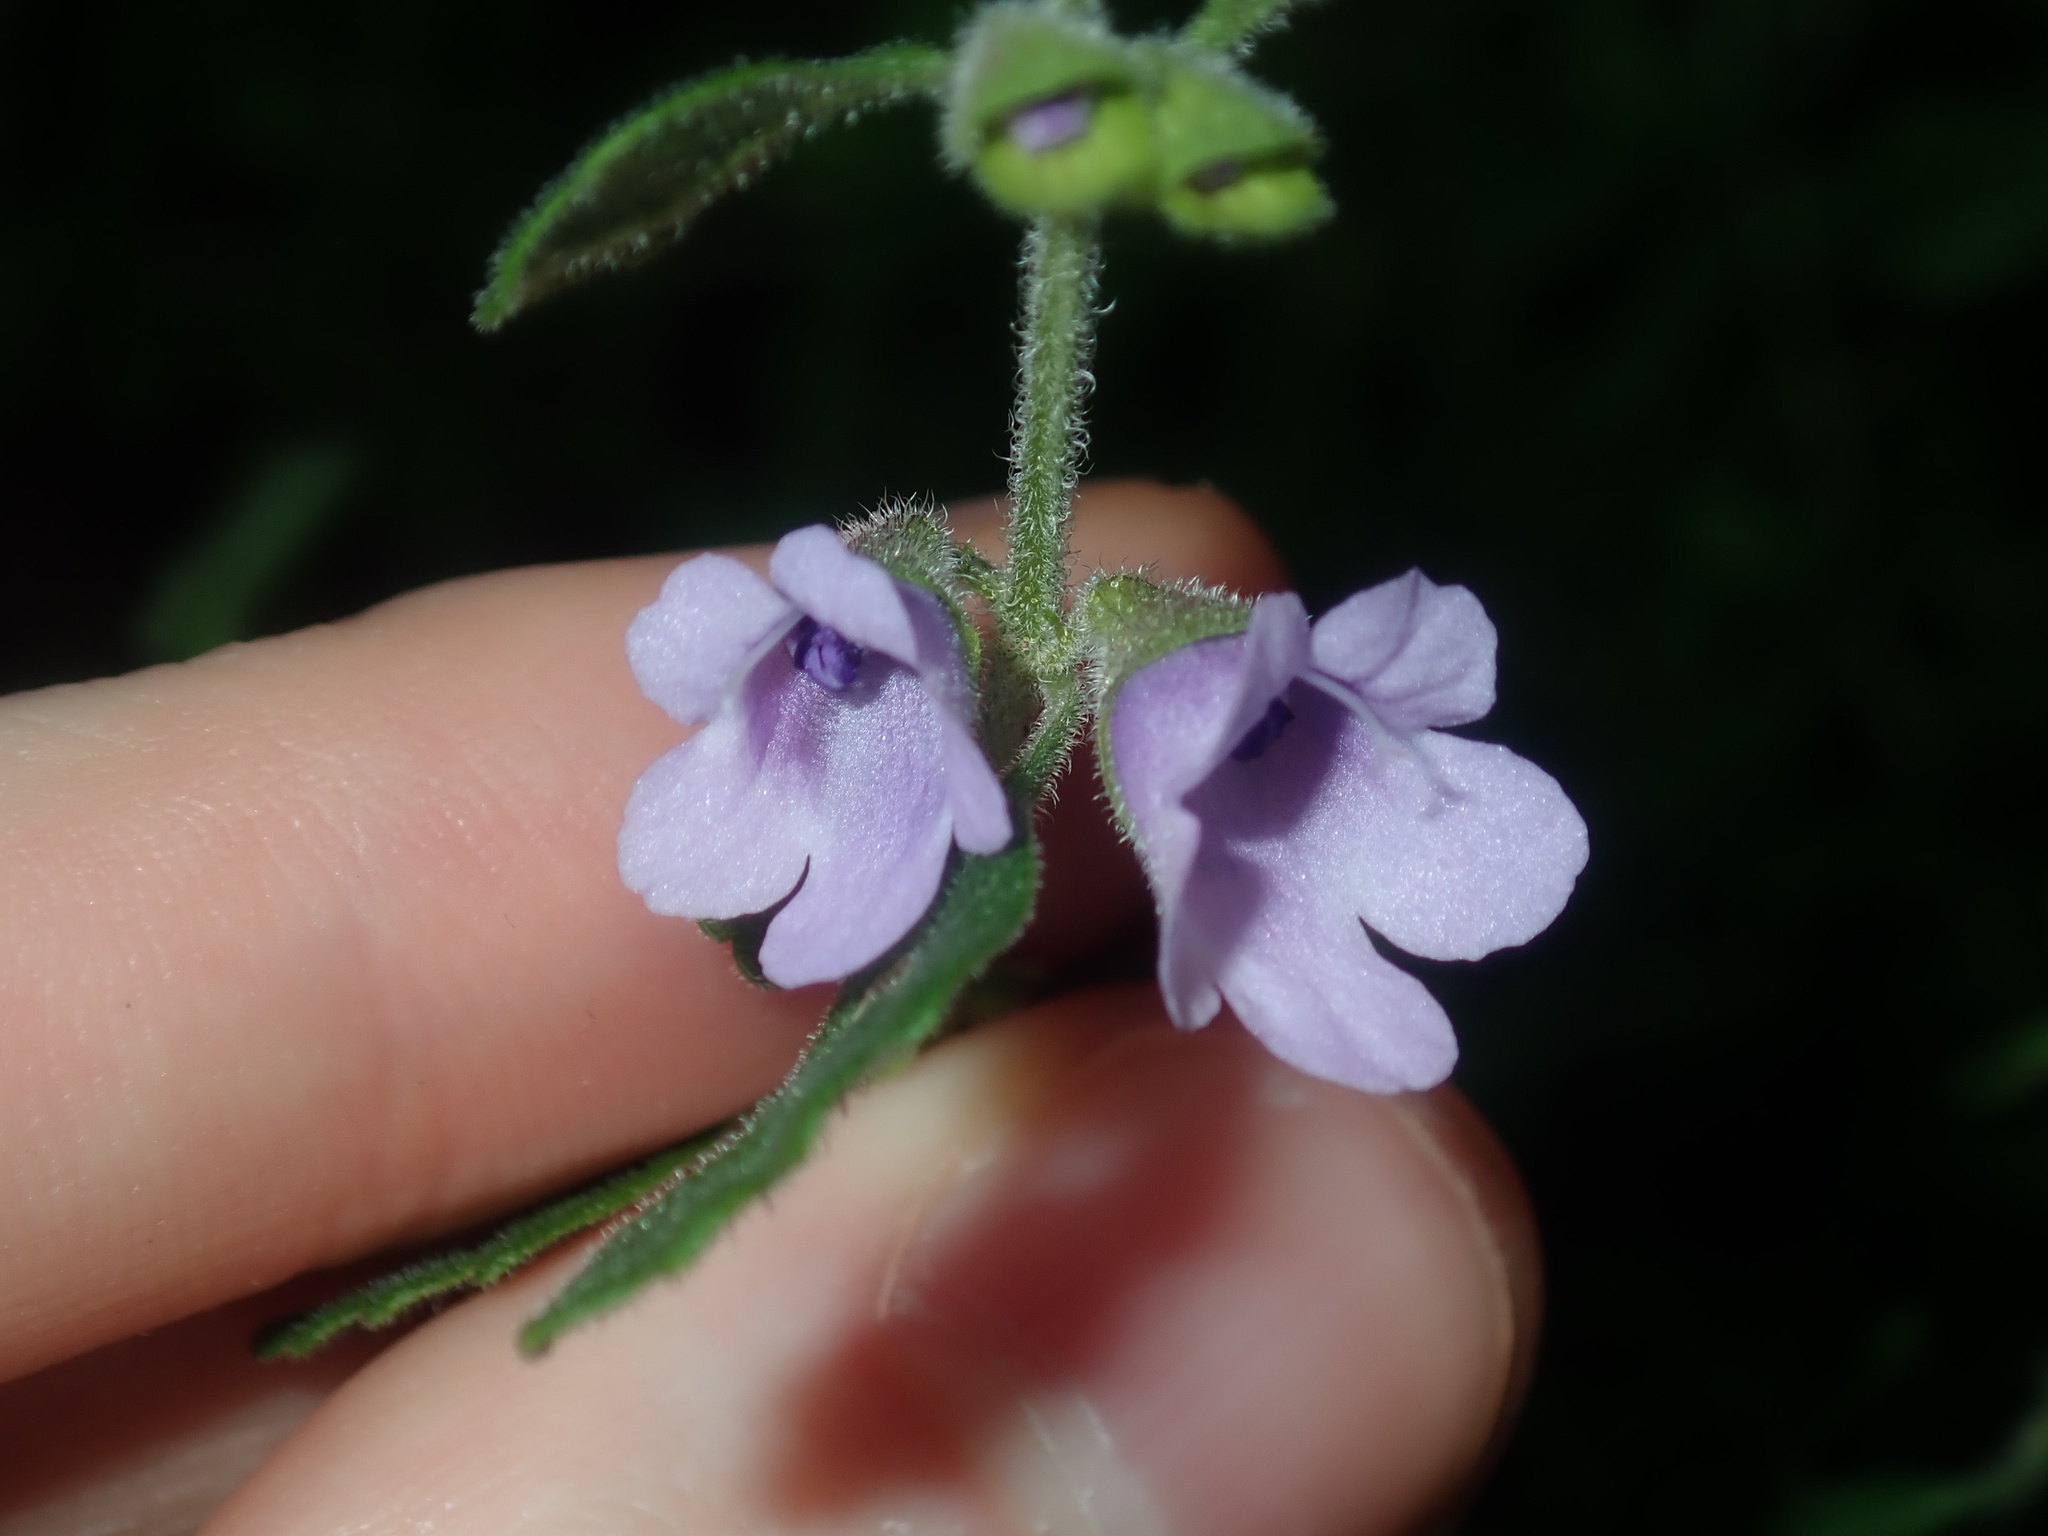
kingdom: Plantae
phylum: Tracheophyta
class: Magnoliopsida
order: Lamiales
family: Lamiaceae
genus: Prostanthera
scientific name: Prostanthera incana
